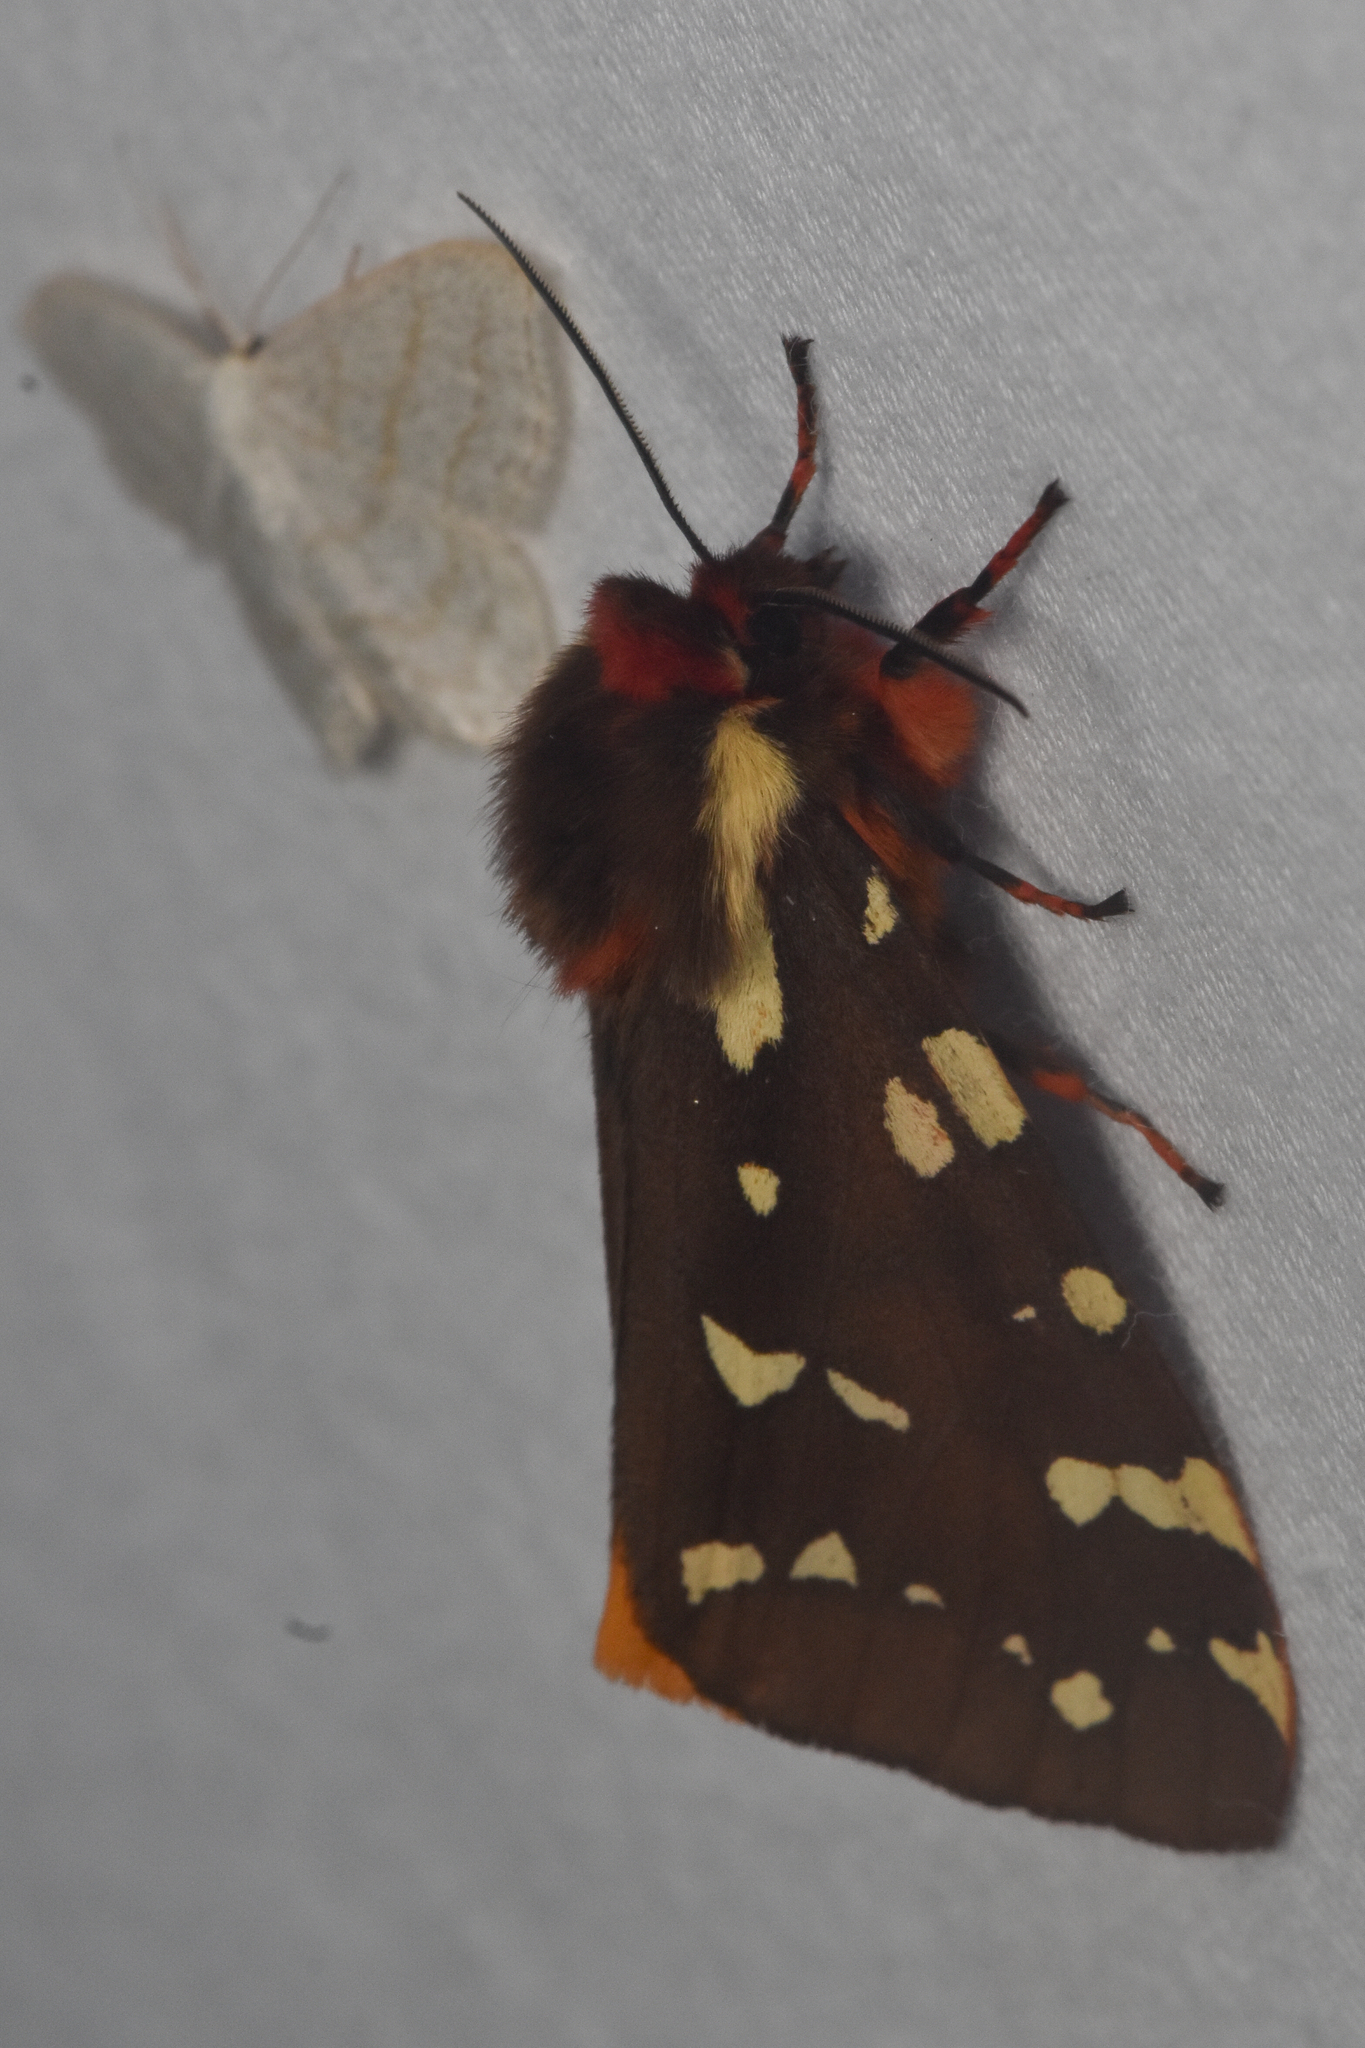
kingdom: Animalia
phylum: Arthropoda
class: Insecta
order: Lepidoptera
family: Erebidae
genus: Arctia
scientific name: Arctia parthenos
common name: St. lawrence tiger moth
